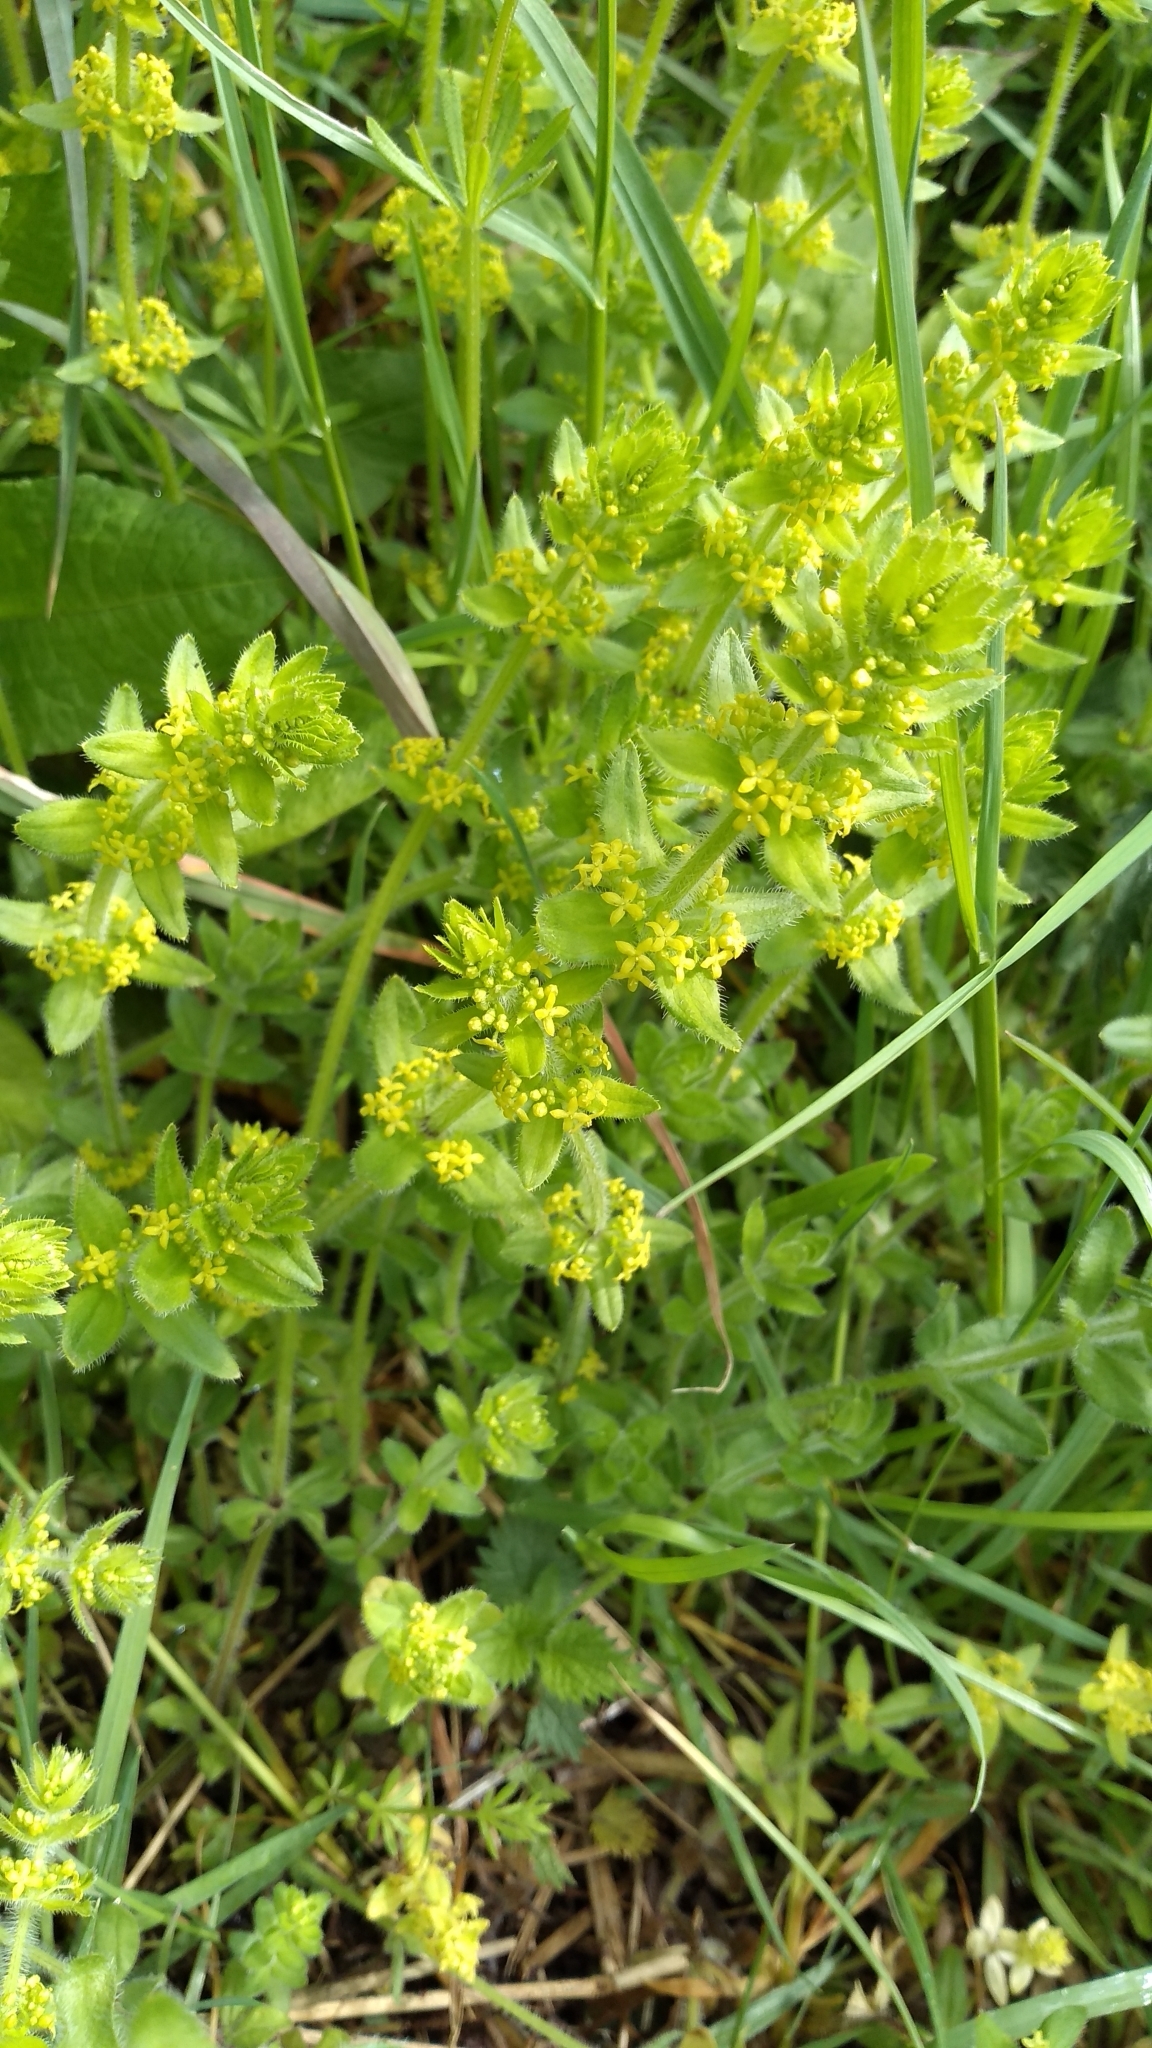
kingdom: Plantae
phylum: Tracheophyta
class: Magnoliopsida
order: Gentianales
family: Rubiaceae
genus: Cruciata
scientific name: Cruciata laevipes
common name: Crosswort
